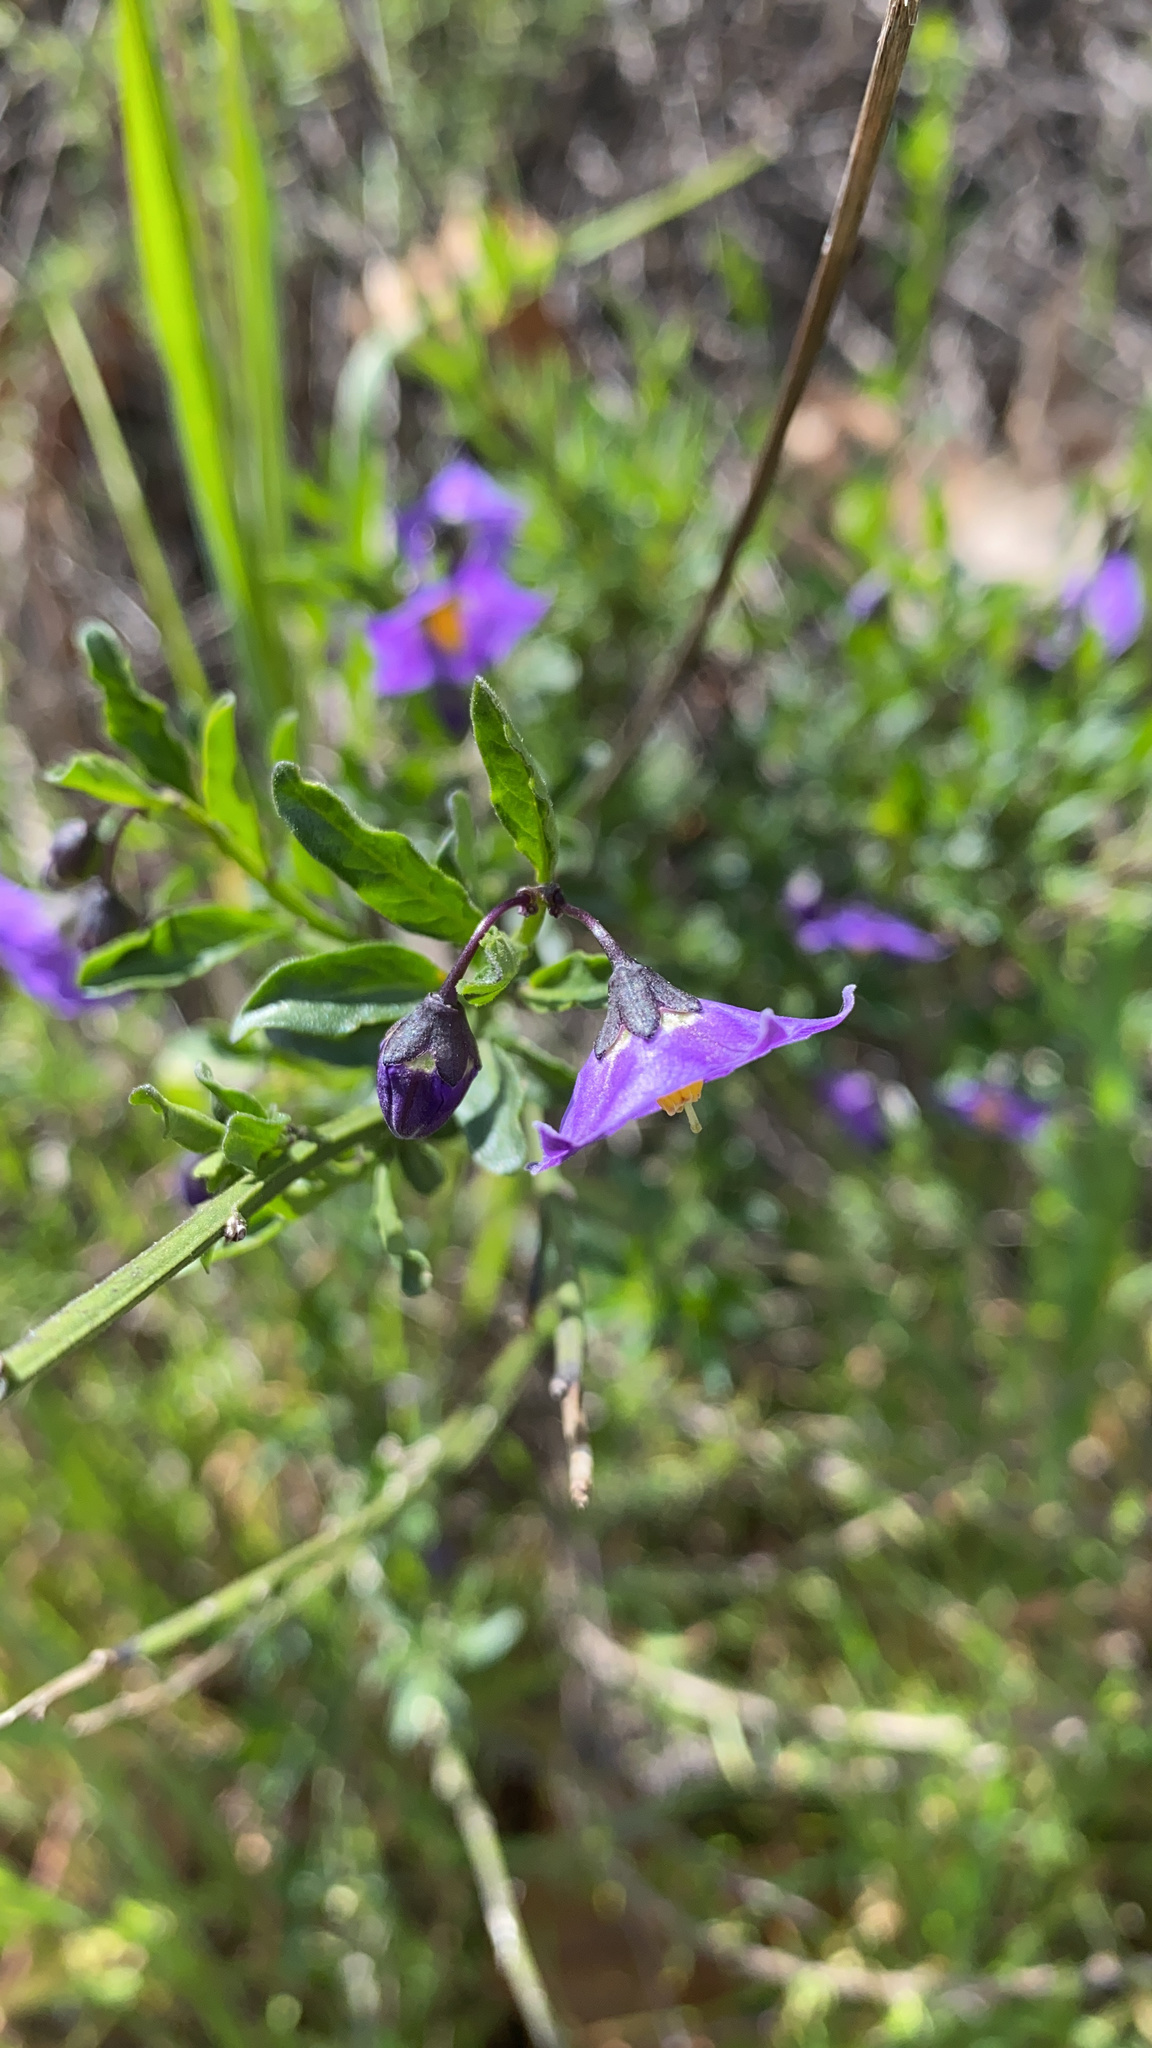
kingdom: Plantae
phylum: Tracheophyta
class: Magnoliopsida
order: Solanales
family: Solanaceae
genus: Solanum
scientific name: Solanum umbelliferum
